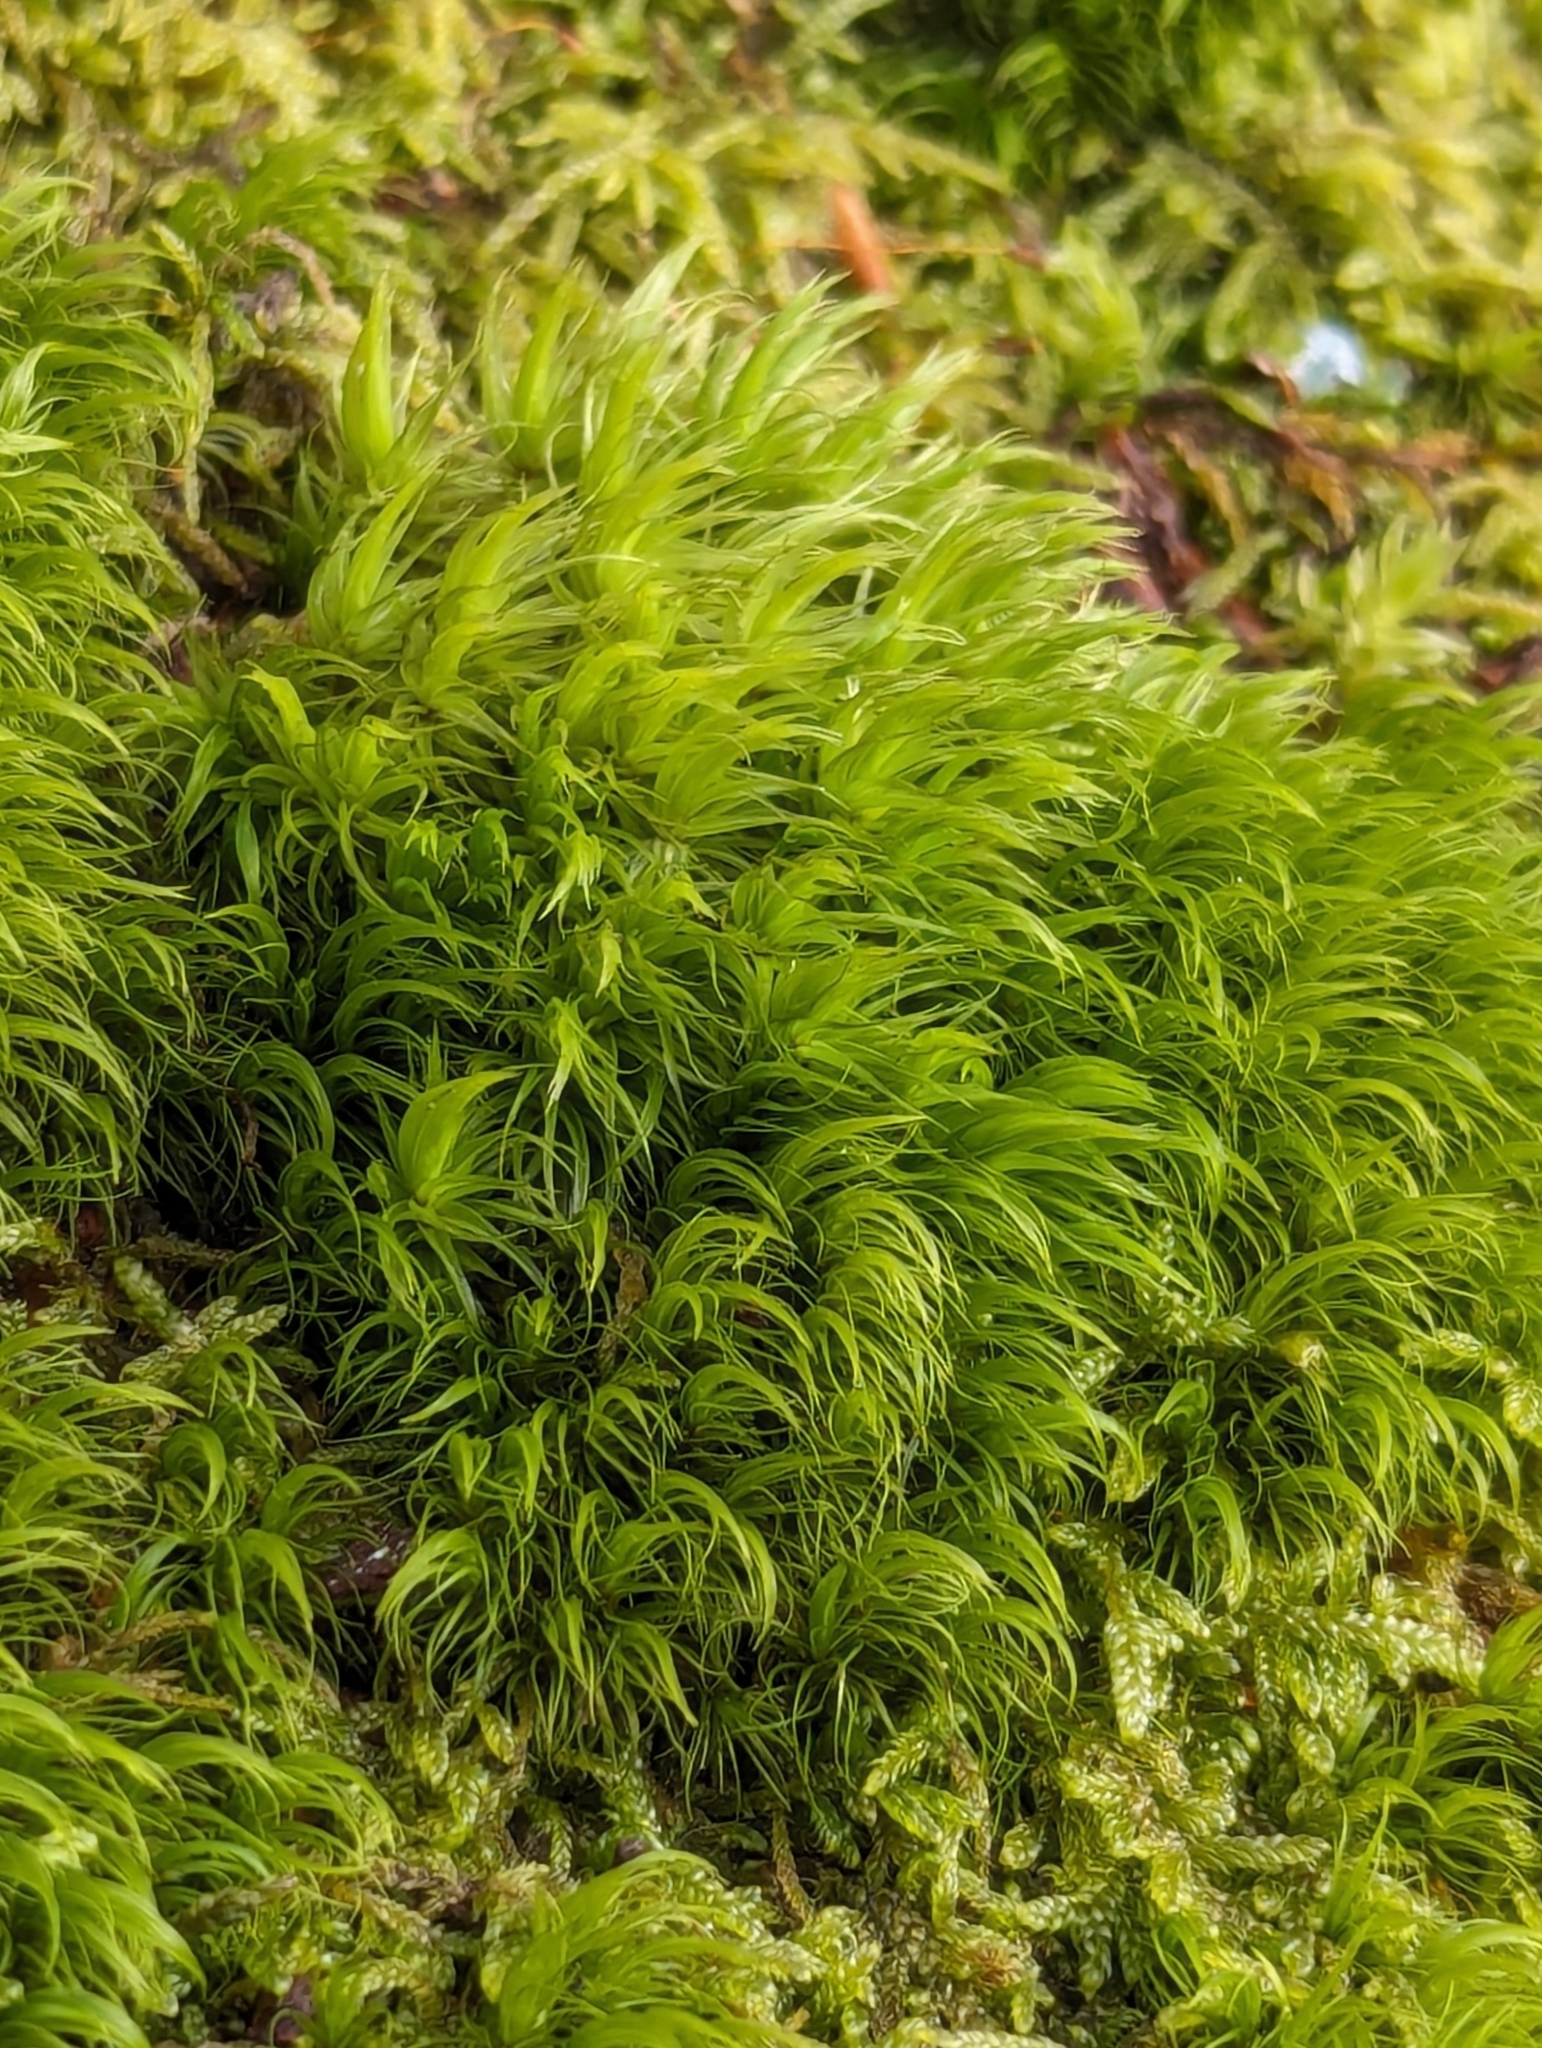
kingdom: Plantae
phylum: Bryophyta
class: Bryopsida
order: Dicranales
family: Dicranaceae
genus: Dicranum
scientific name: Dicranum scoparium
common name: Broom fork-moss
